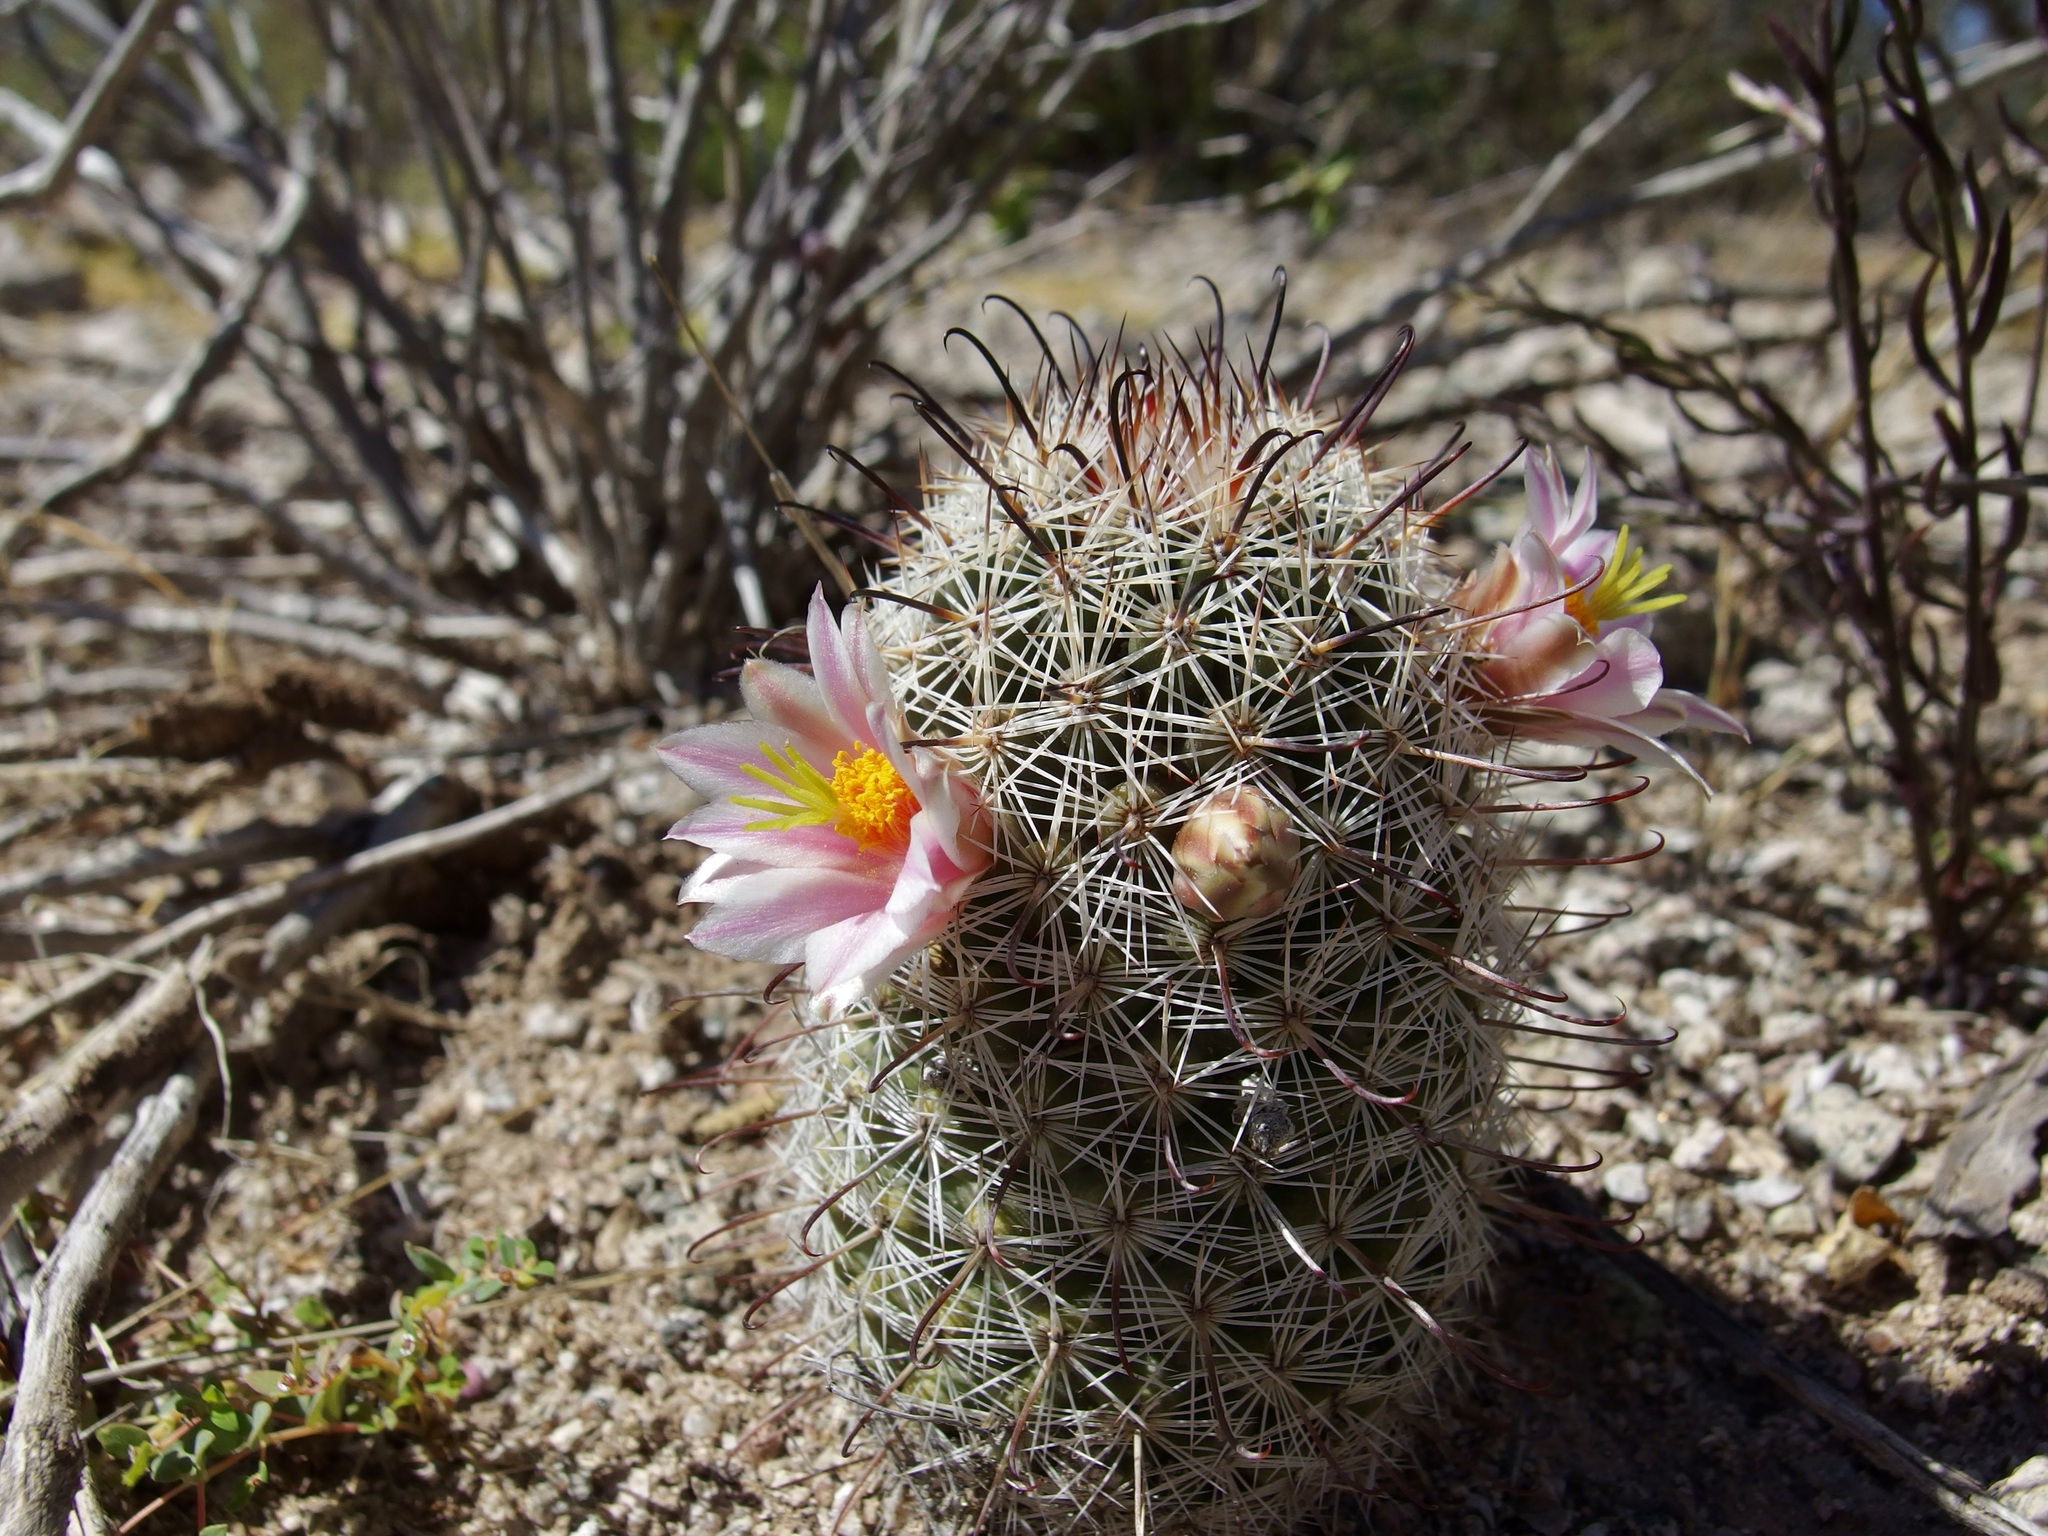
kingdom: Plantae
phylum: Tracheophyta
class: Magnoliopsida
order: Caryophyllales
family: Cactaceae
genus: Cochemiea
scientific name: Cochemiea sheldonii
